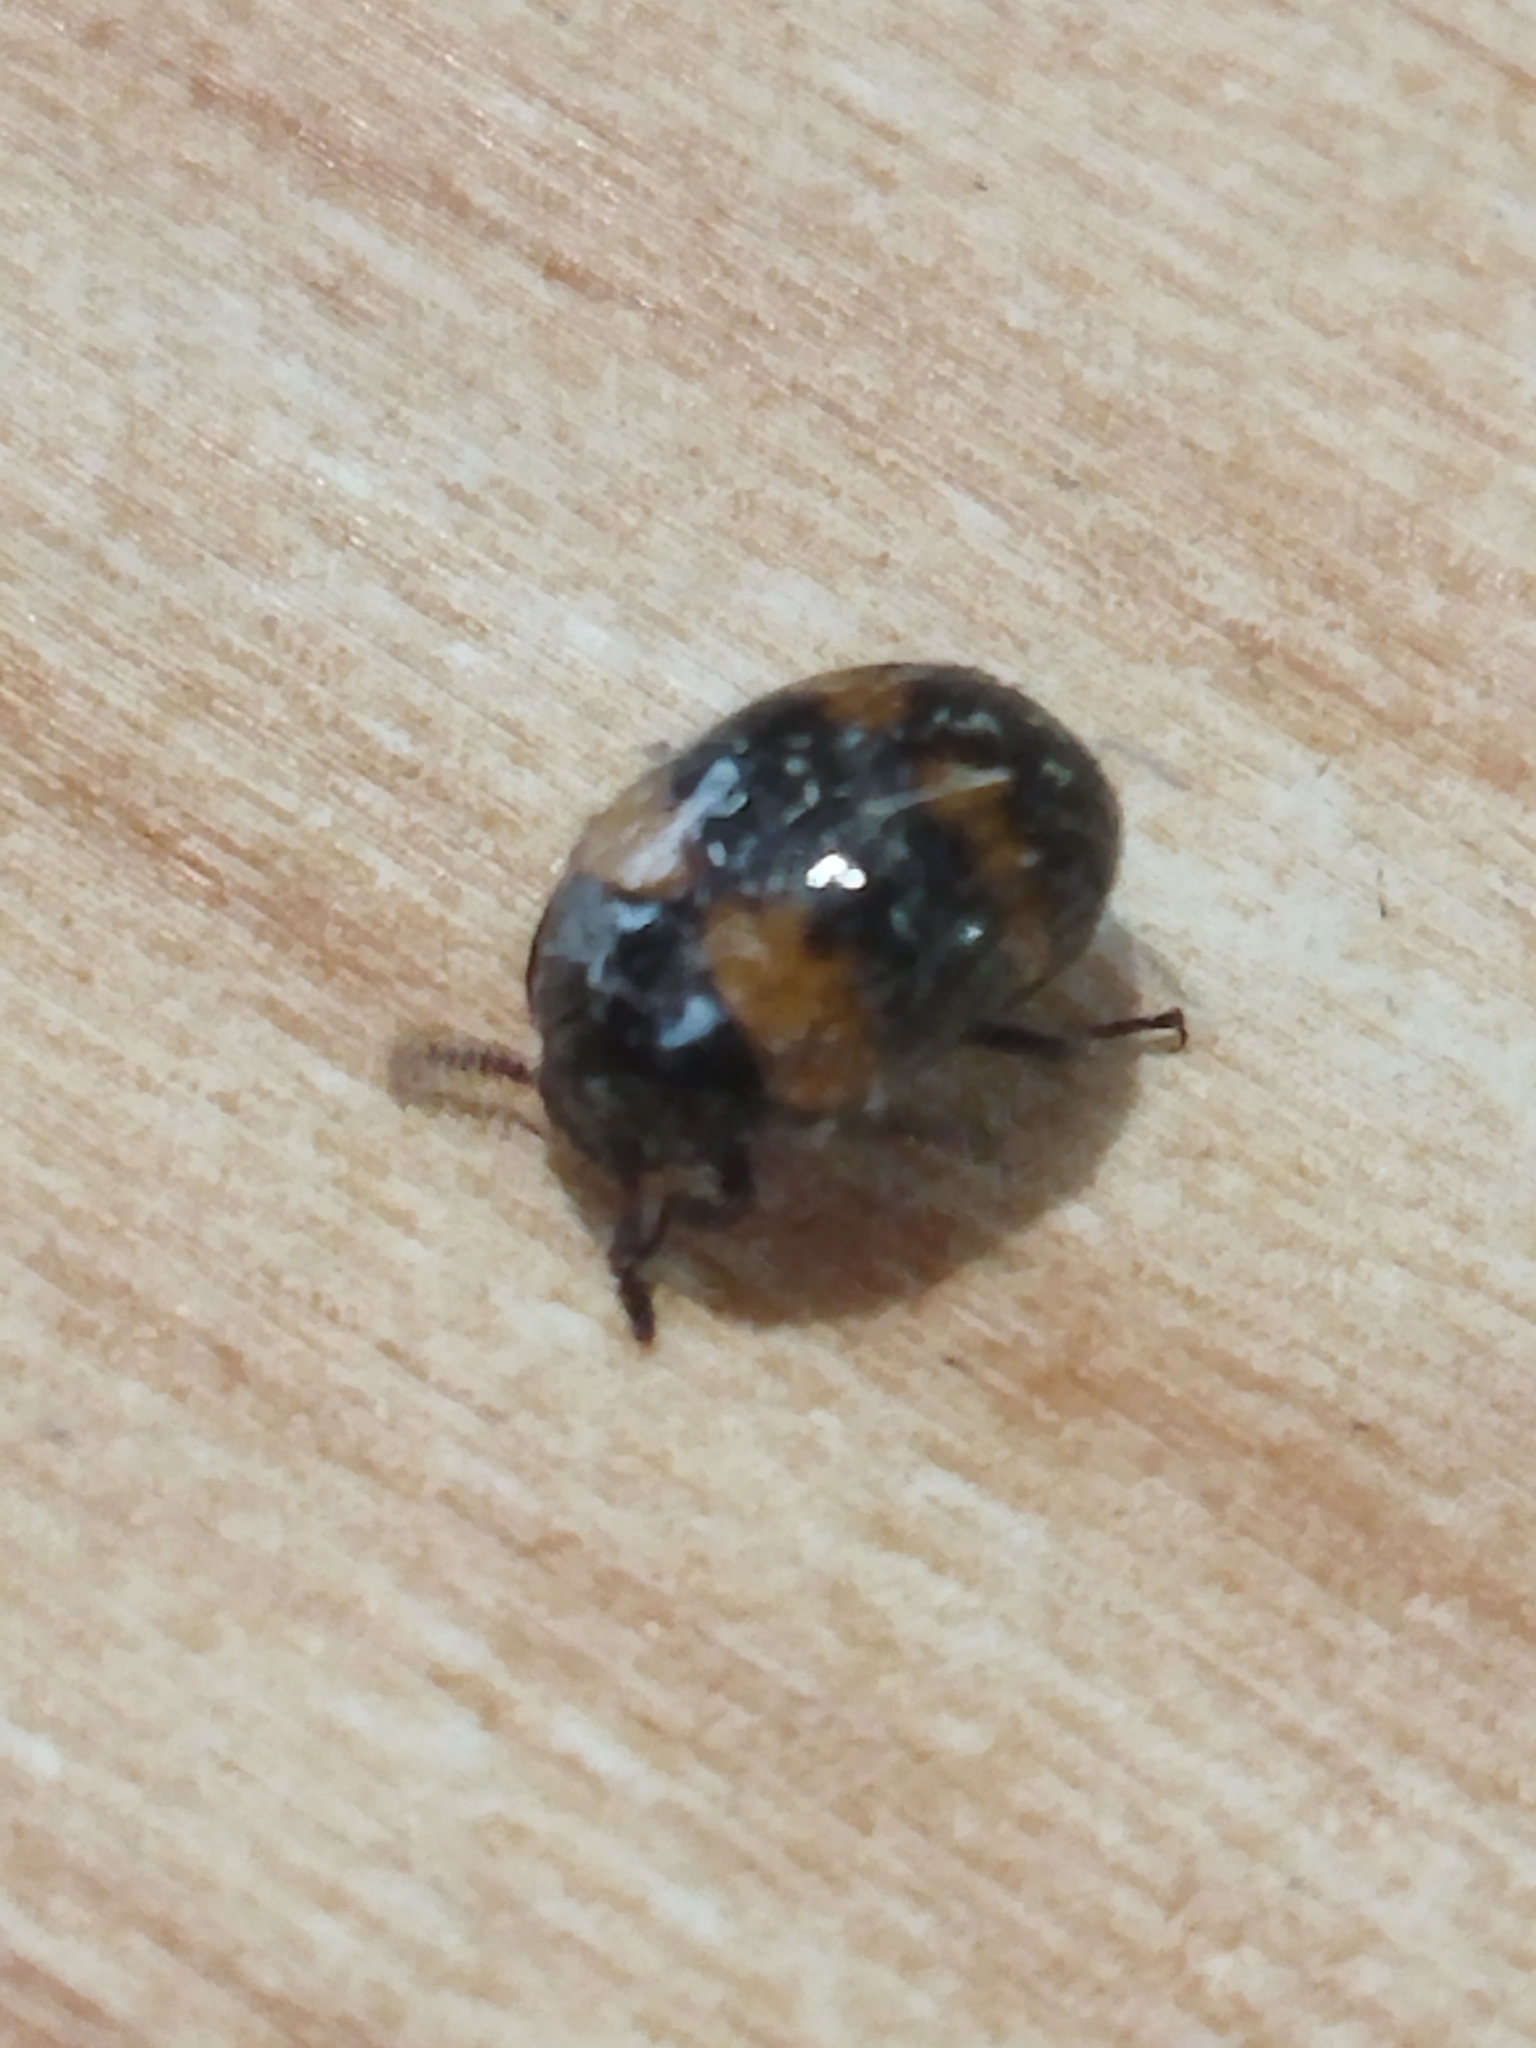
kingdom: Animalia
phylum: Arthropoda
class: Insecta
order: Coleoptera
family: Tenebrionidae
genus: Diaperis
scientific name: Diaperis boleti
